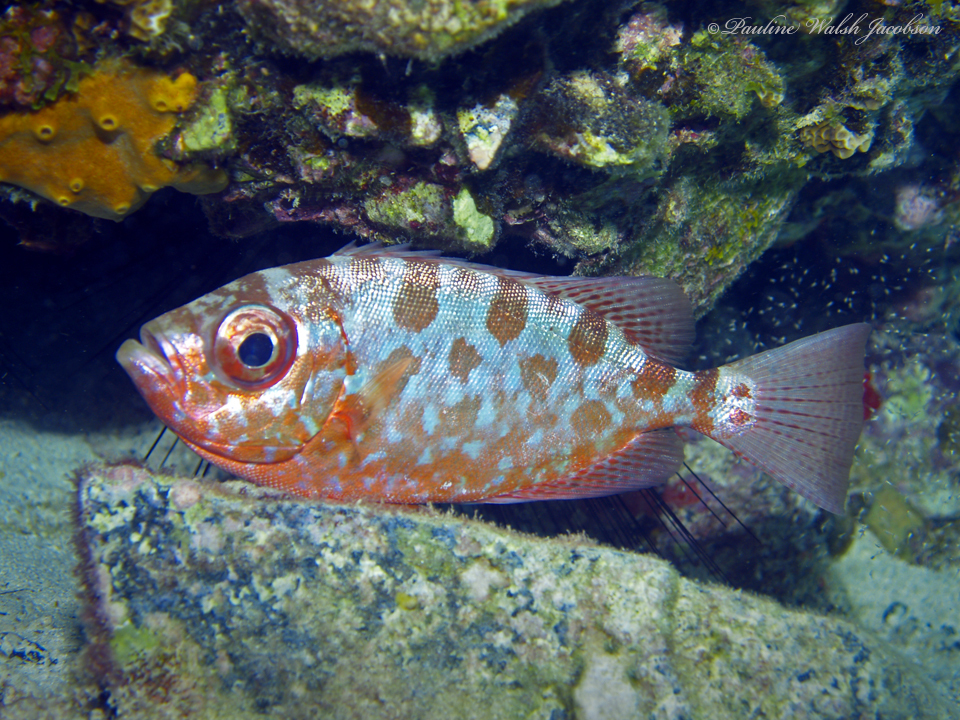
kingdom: Animalia
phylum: Chordata
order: Perciformes
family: Priacanthidae
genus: Heteropriacanthus
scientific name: Heteropriacanthus cruentatus
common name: Glasseye
